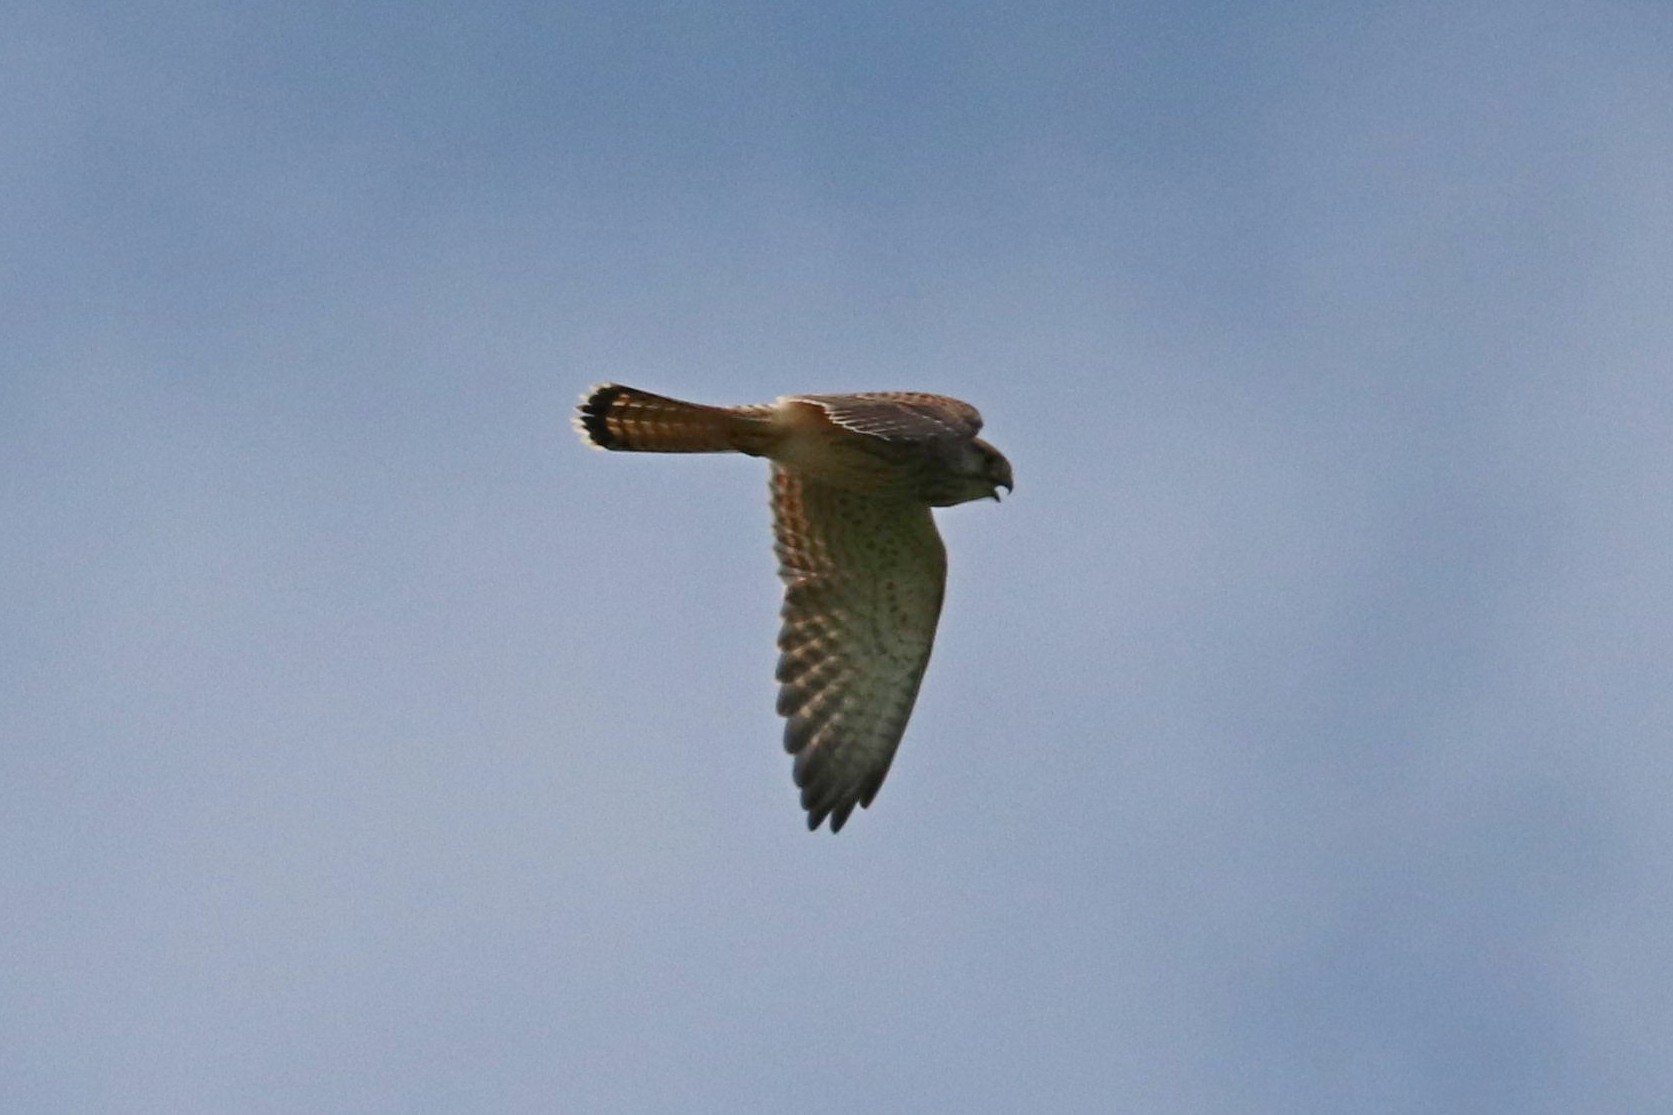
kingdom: Animalia
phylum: Chordata
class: Aves
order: Falconiformes
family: Falconidae
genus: Falco
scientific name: Falco tinnunculus
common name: Common kestrel
